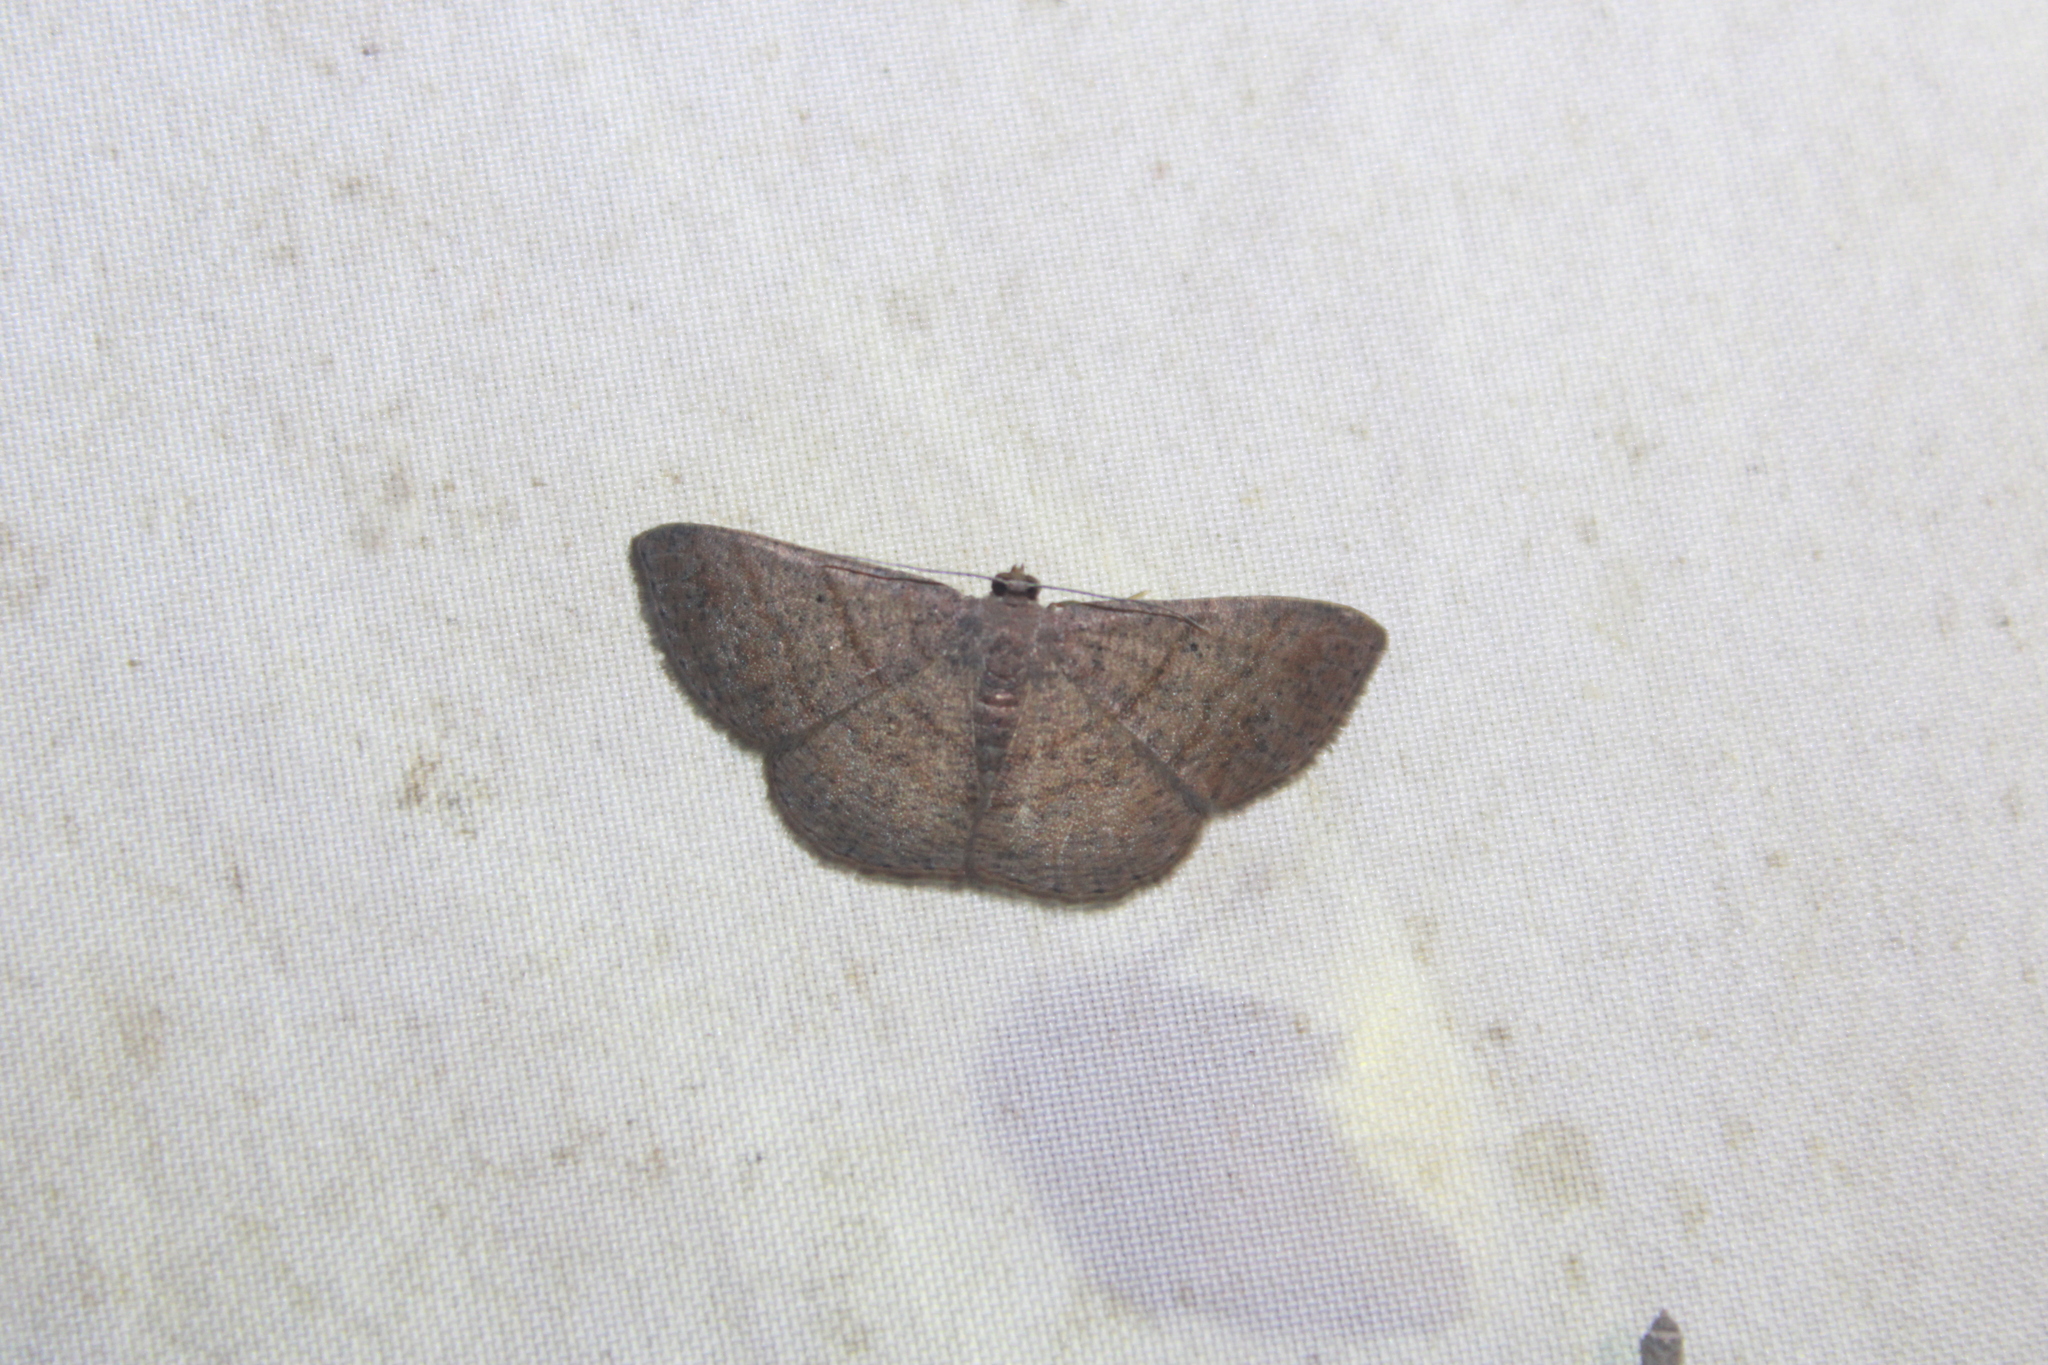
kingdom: Animalia
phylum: Arthropoda
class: Insecta
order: Lepidoptera
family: Geometridae
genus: Parilexia
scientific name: Parilexia proditata
